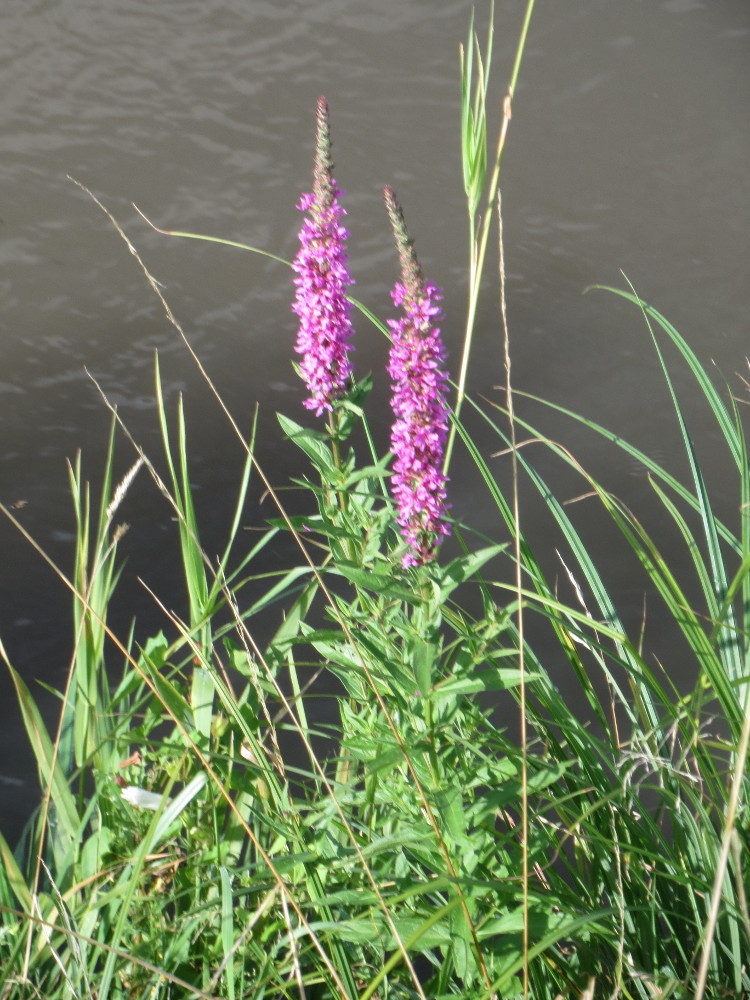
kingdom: Plantae
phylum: Tracheophyta
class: Magnoliopsida
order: Myrtales
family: Lythraceae
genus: Lythrum
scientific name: Lythrum salicaria
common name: Purple loosestrife
